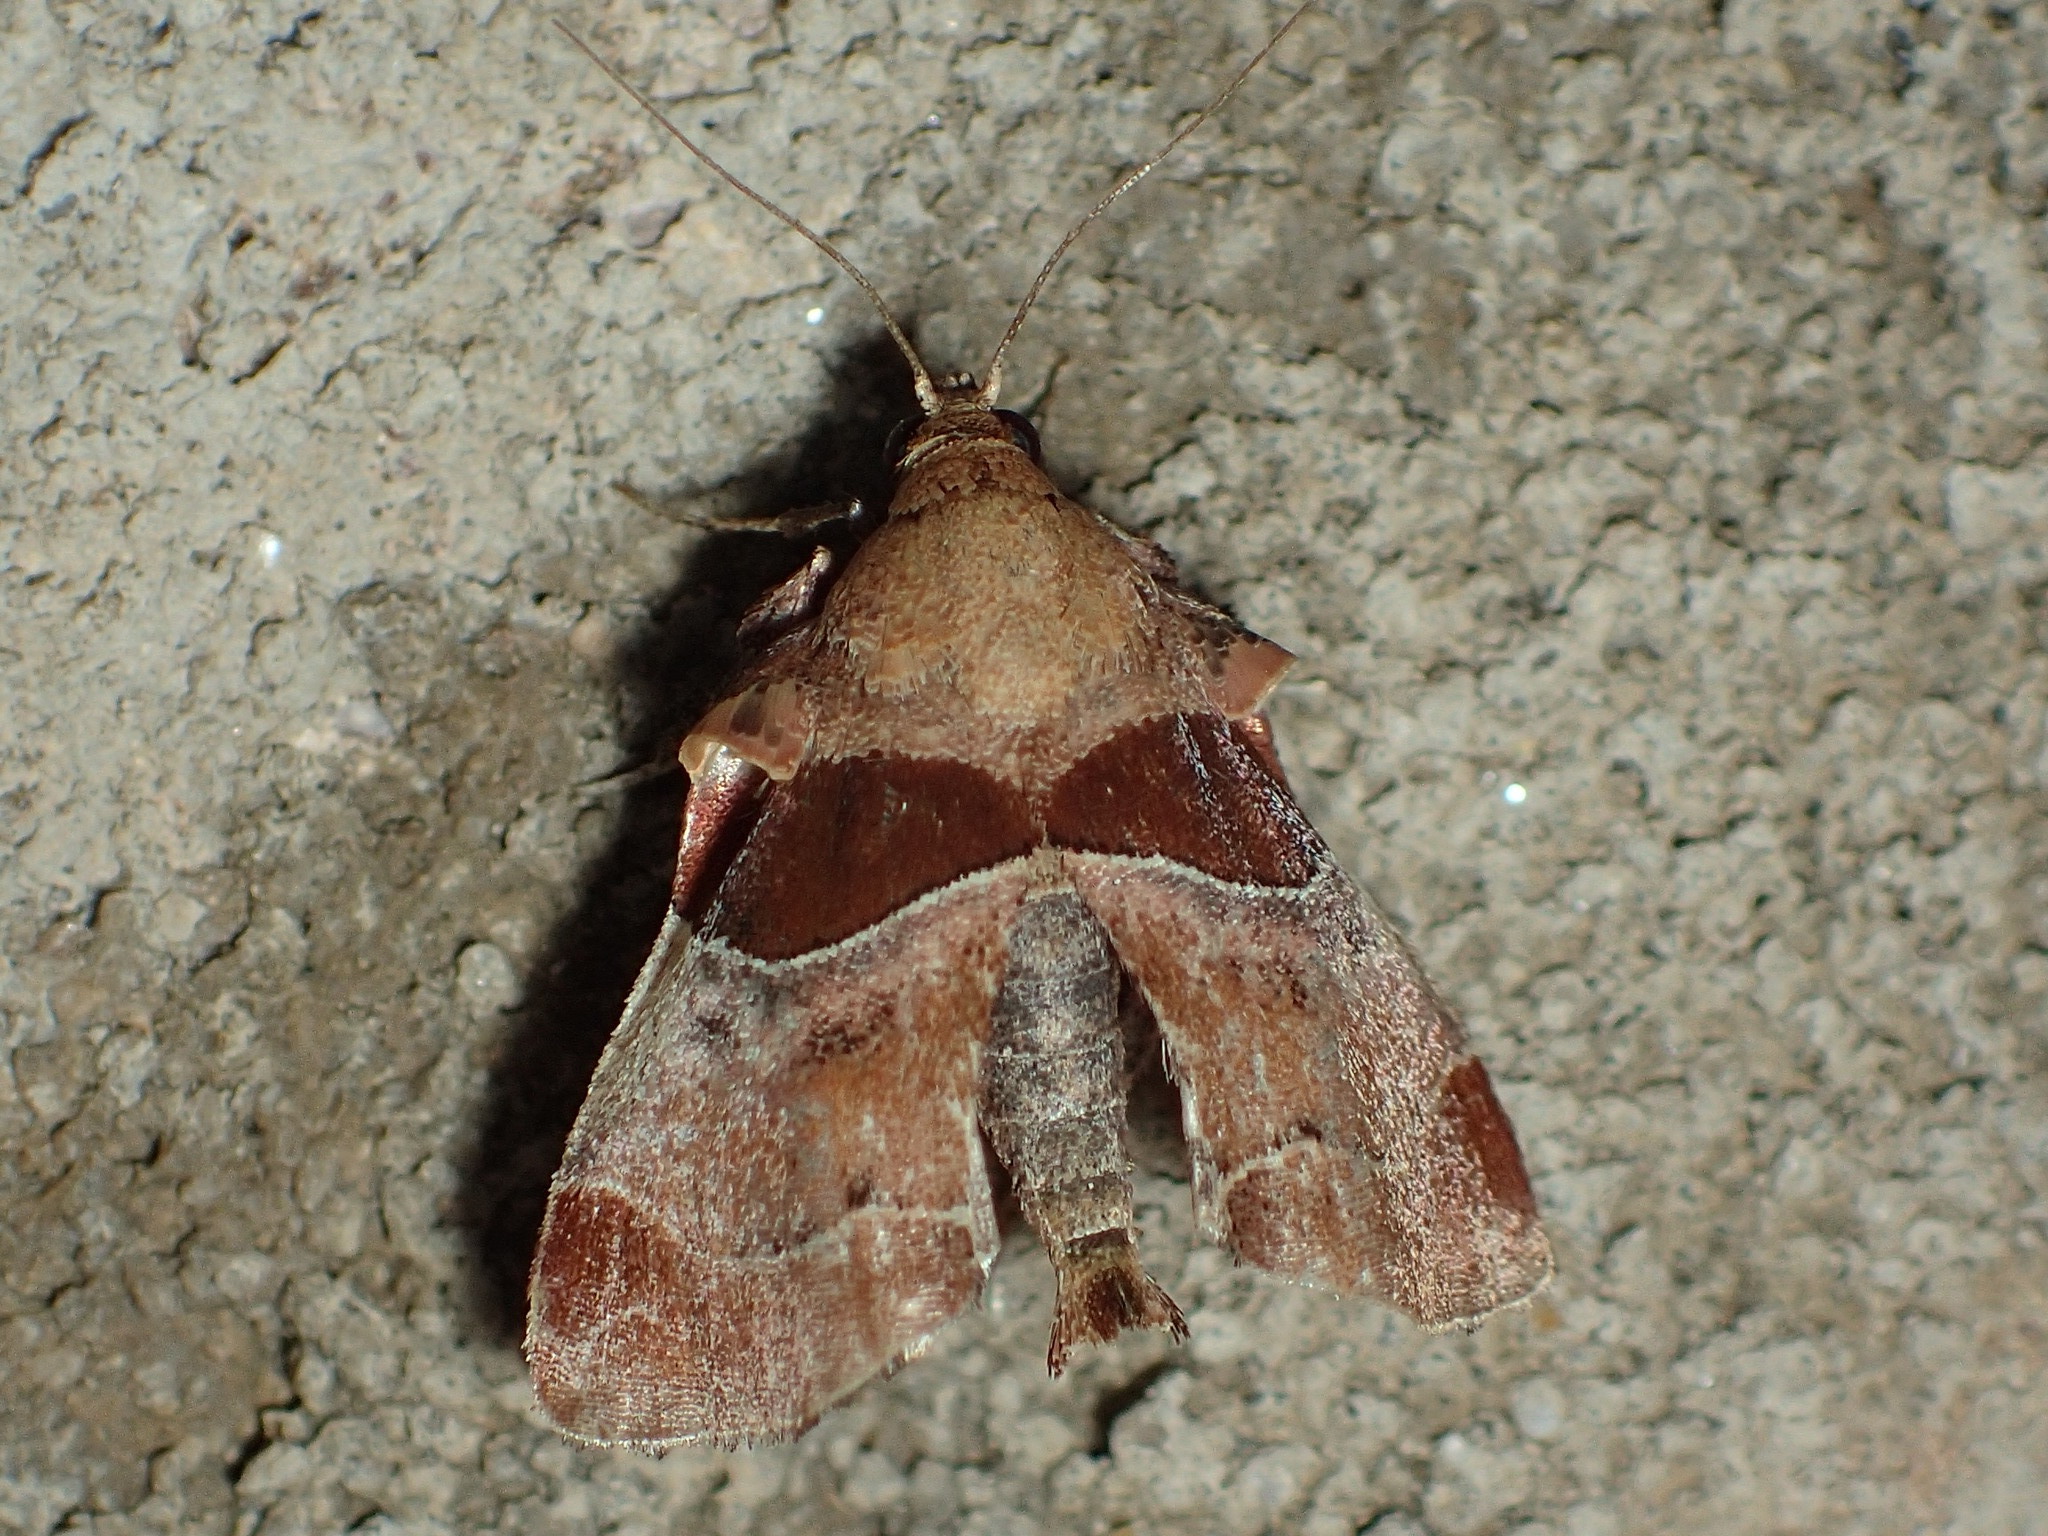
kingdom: Animalia
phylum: Arthropoda
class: Insecta
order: Lepidoptera
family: Pyralidae
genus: Tosale
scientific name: Tosale oviplagalis
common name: Dimorphic tosale moth
